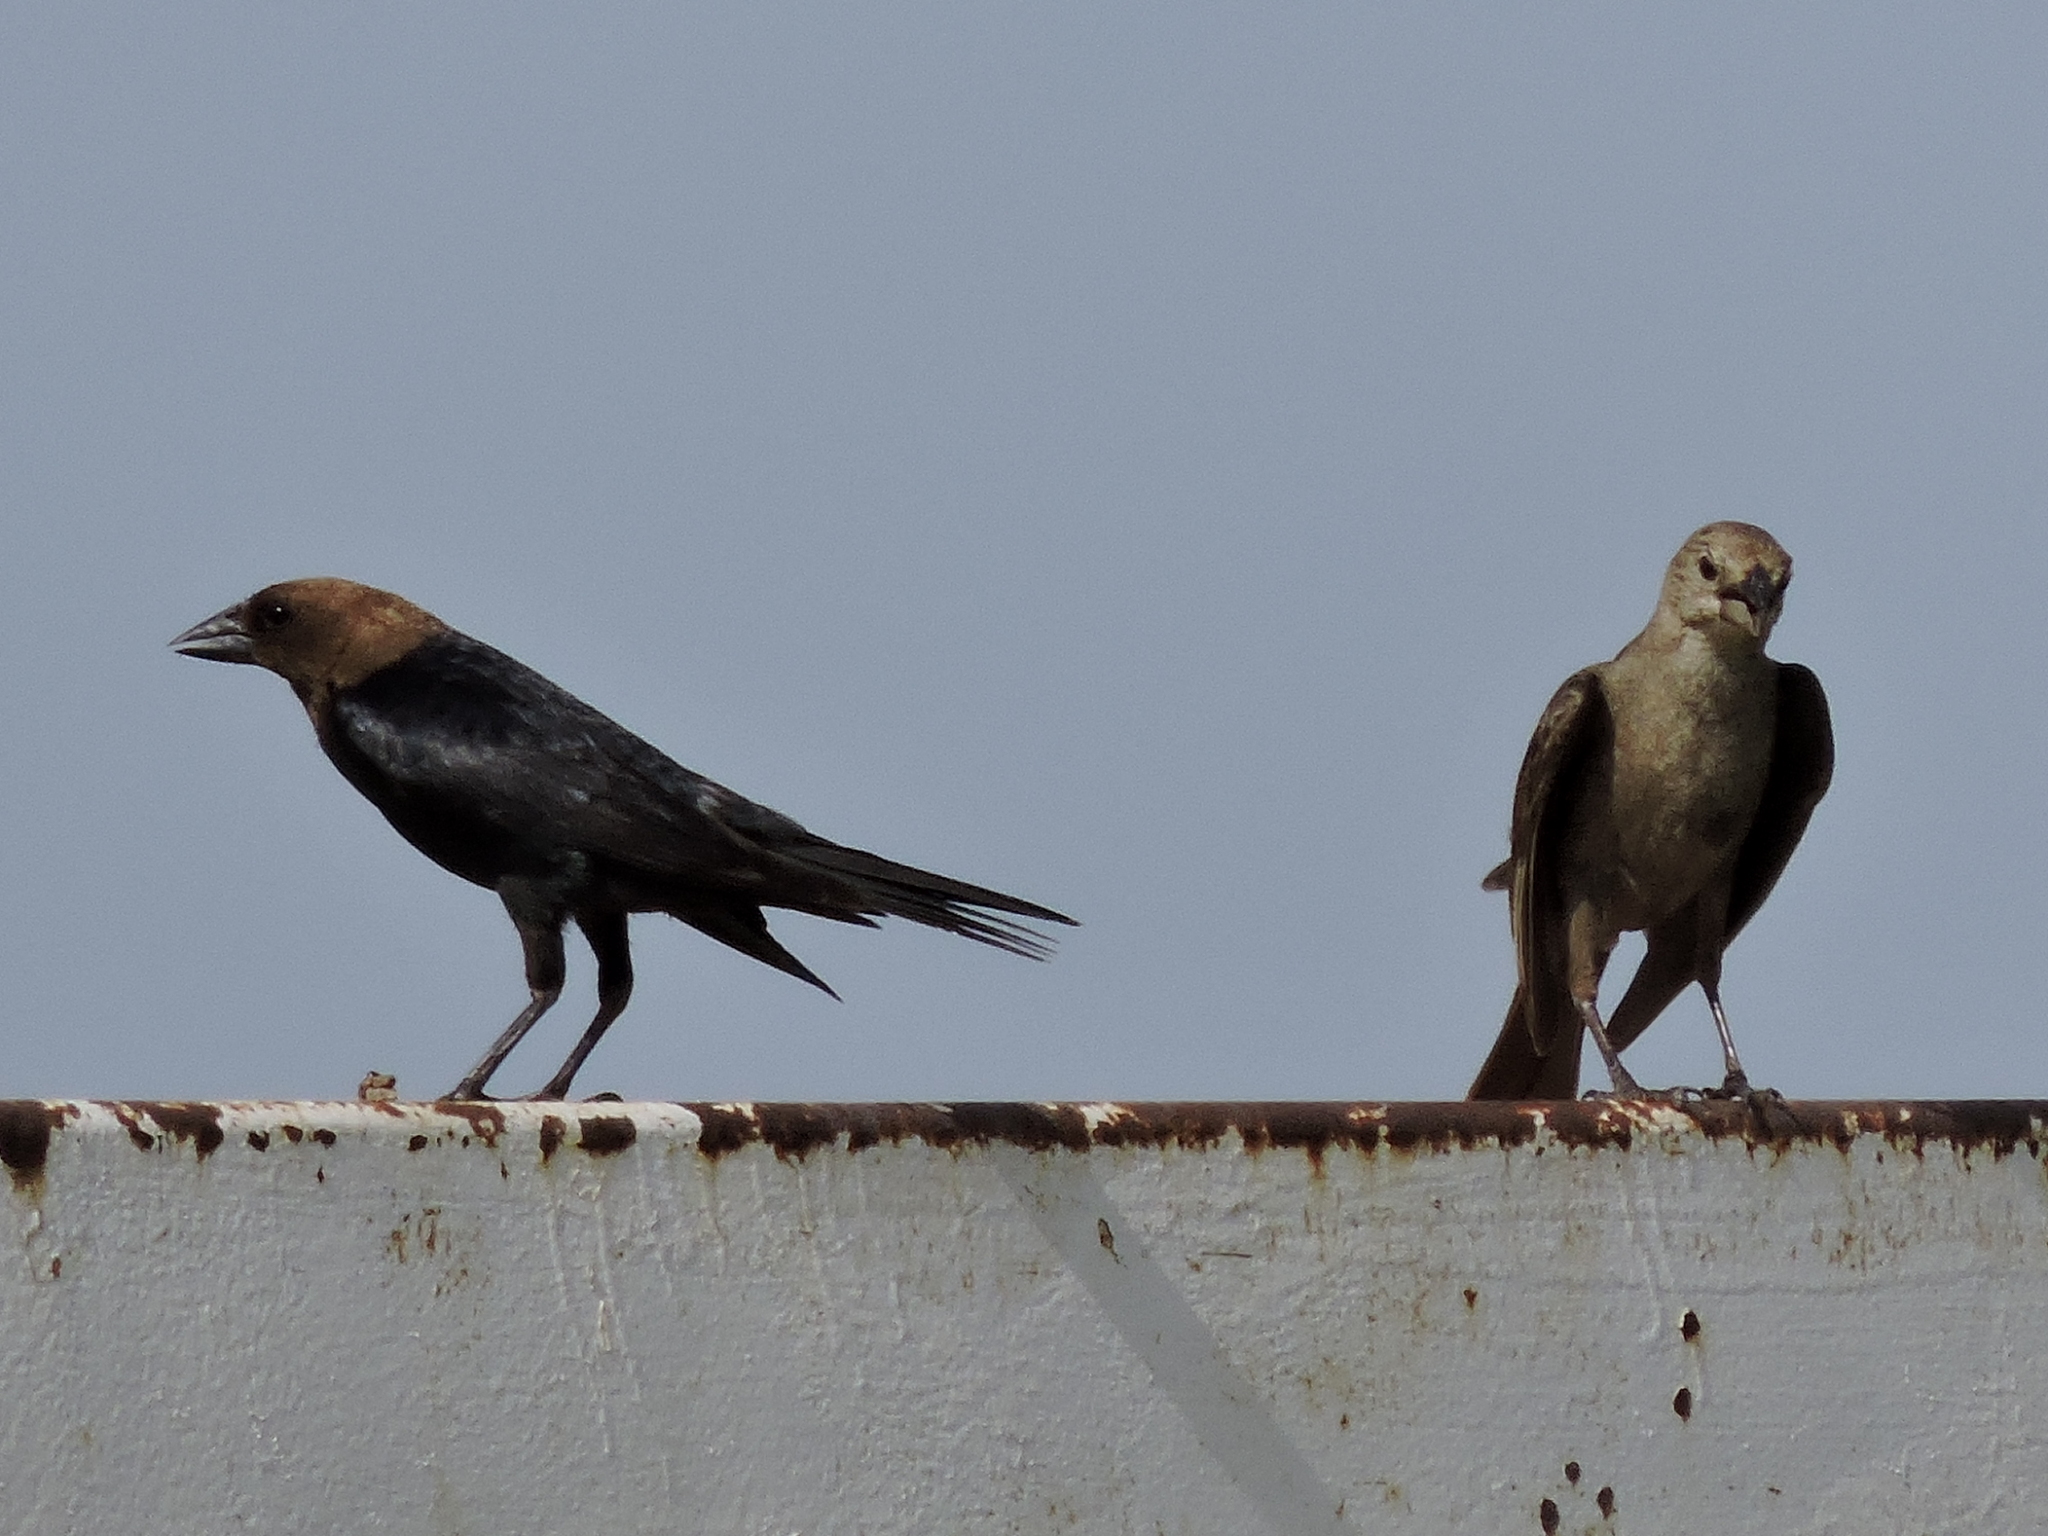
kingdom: Animalia
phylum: Chordata
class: Aves
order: Passeriformes
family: Icteridae
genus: Molothrus
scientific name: Molothrus ater
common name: Brown-headed cowbird
